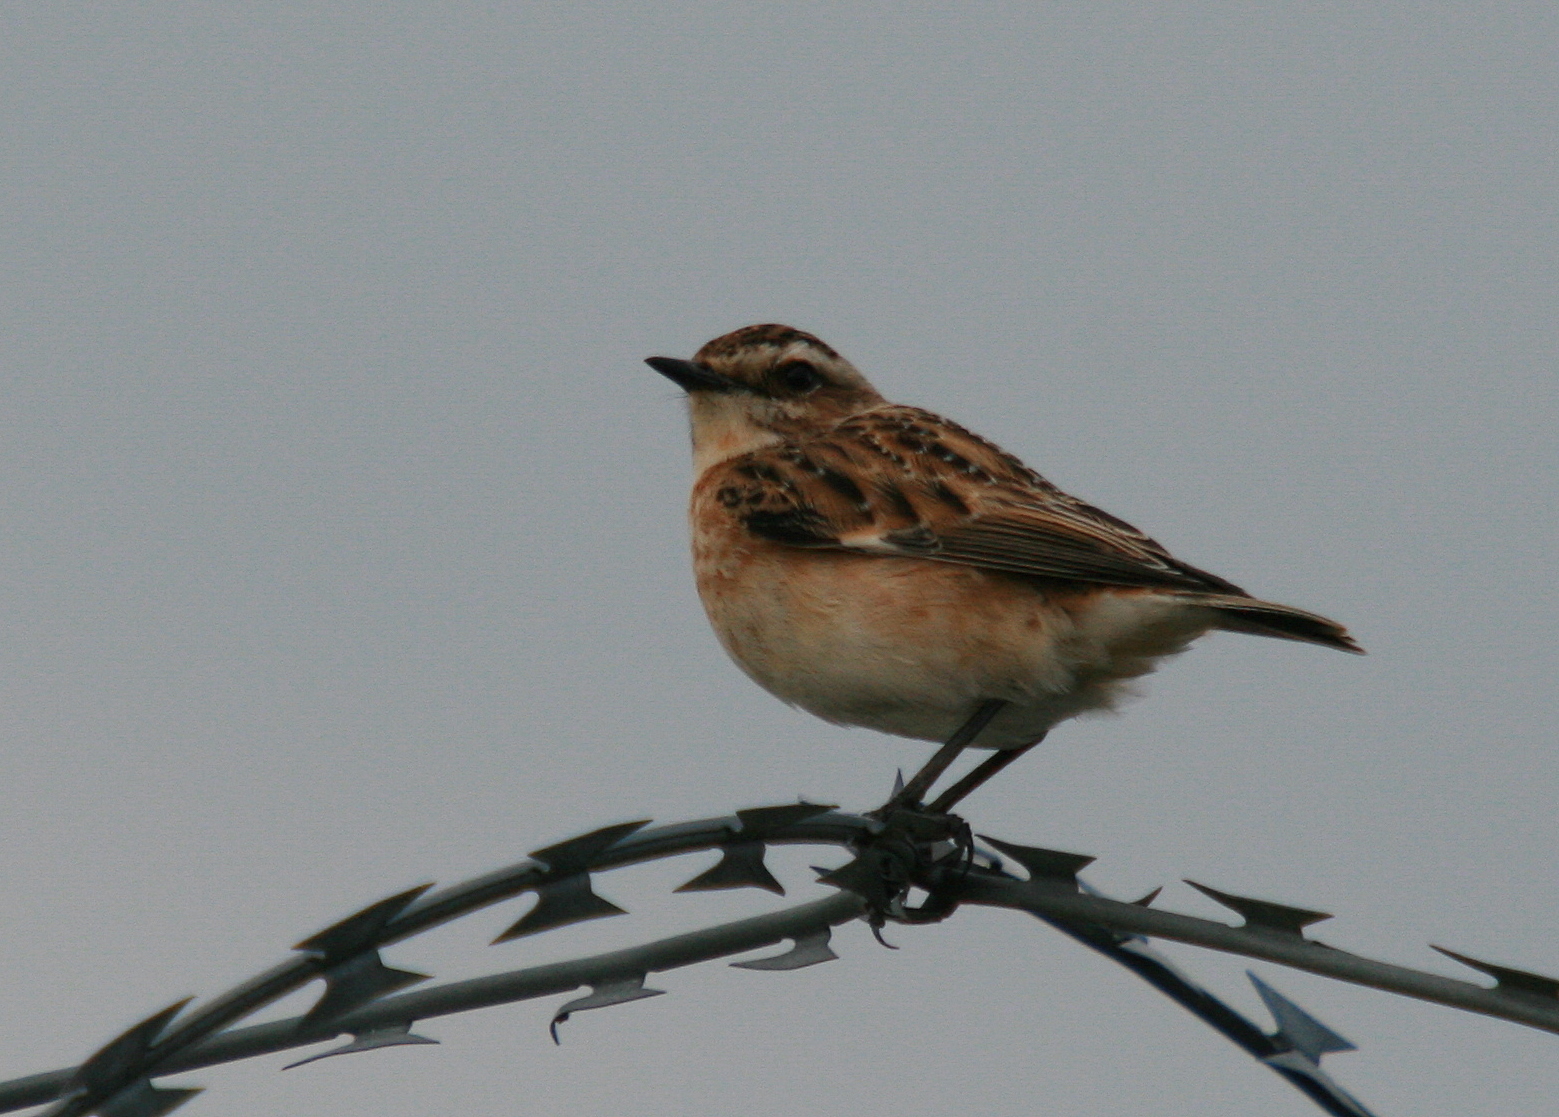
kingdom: Animalia
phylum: Chordata
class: Aves
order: Passeriformes
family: Muscicapidae
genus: Saxicola
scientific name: Saxicola rubetra
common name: Whinchat
